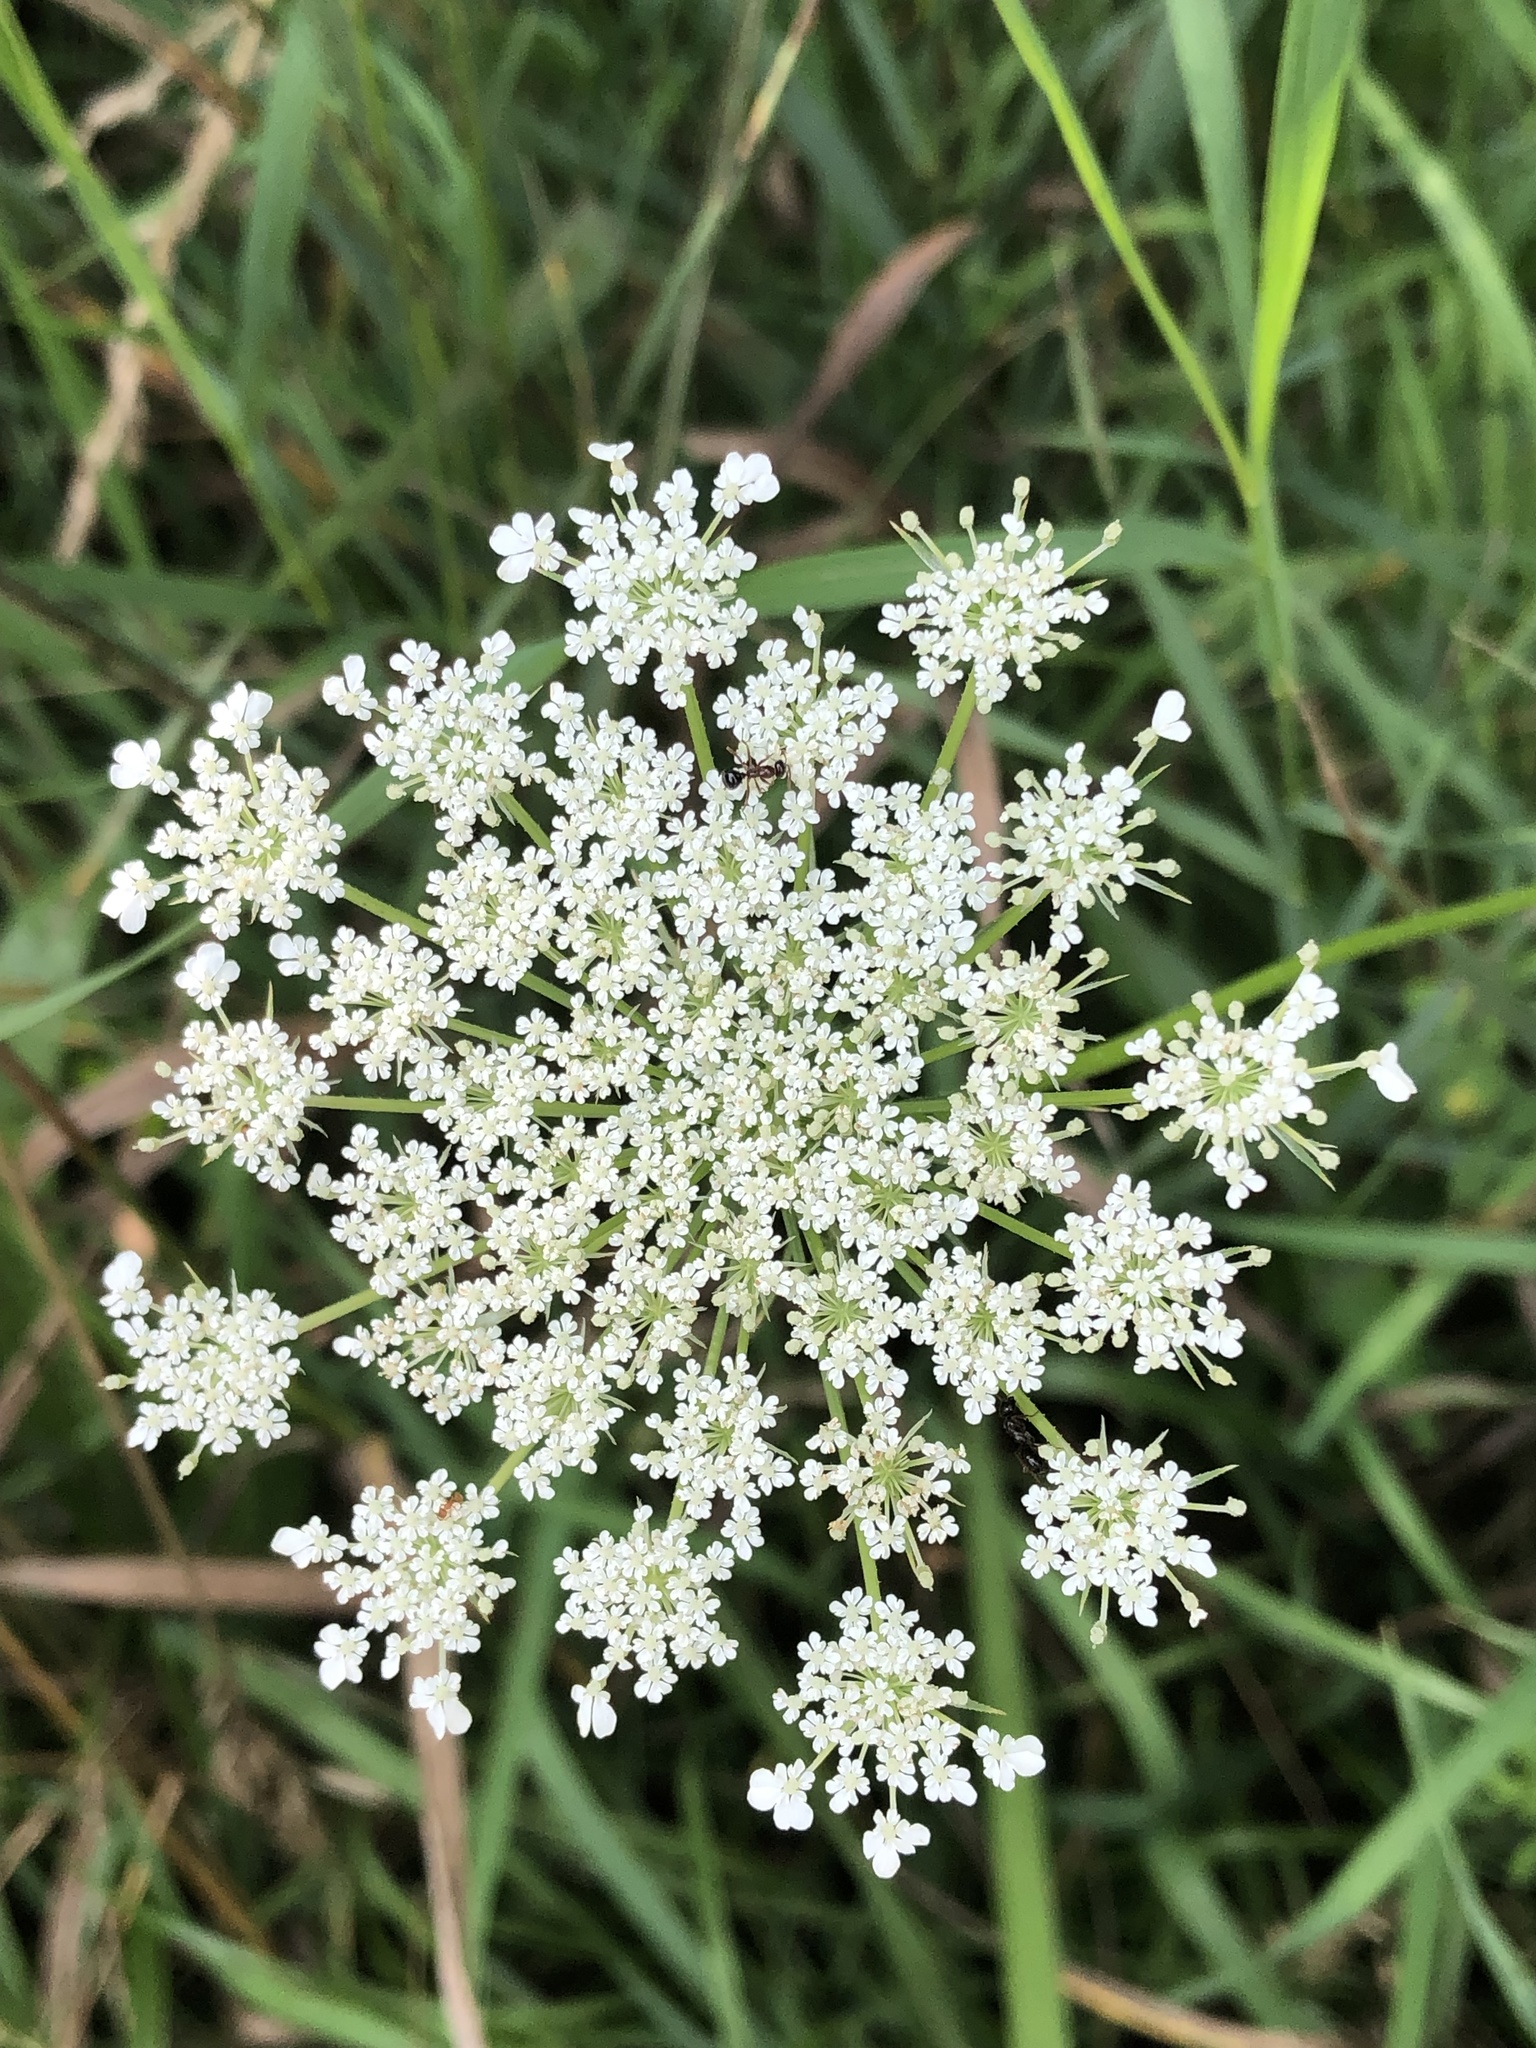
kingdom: Plantae
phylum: Tracheophyta
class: Magnoliopsida
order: Apiales
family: Apiaceae
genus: Daucus
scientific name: Daucus carota
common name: Wild carrot
